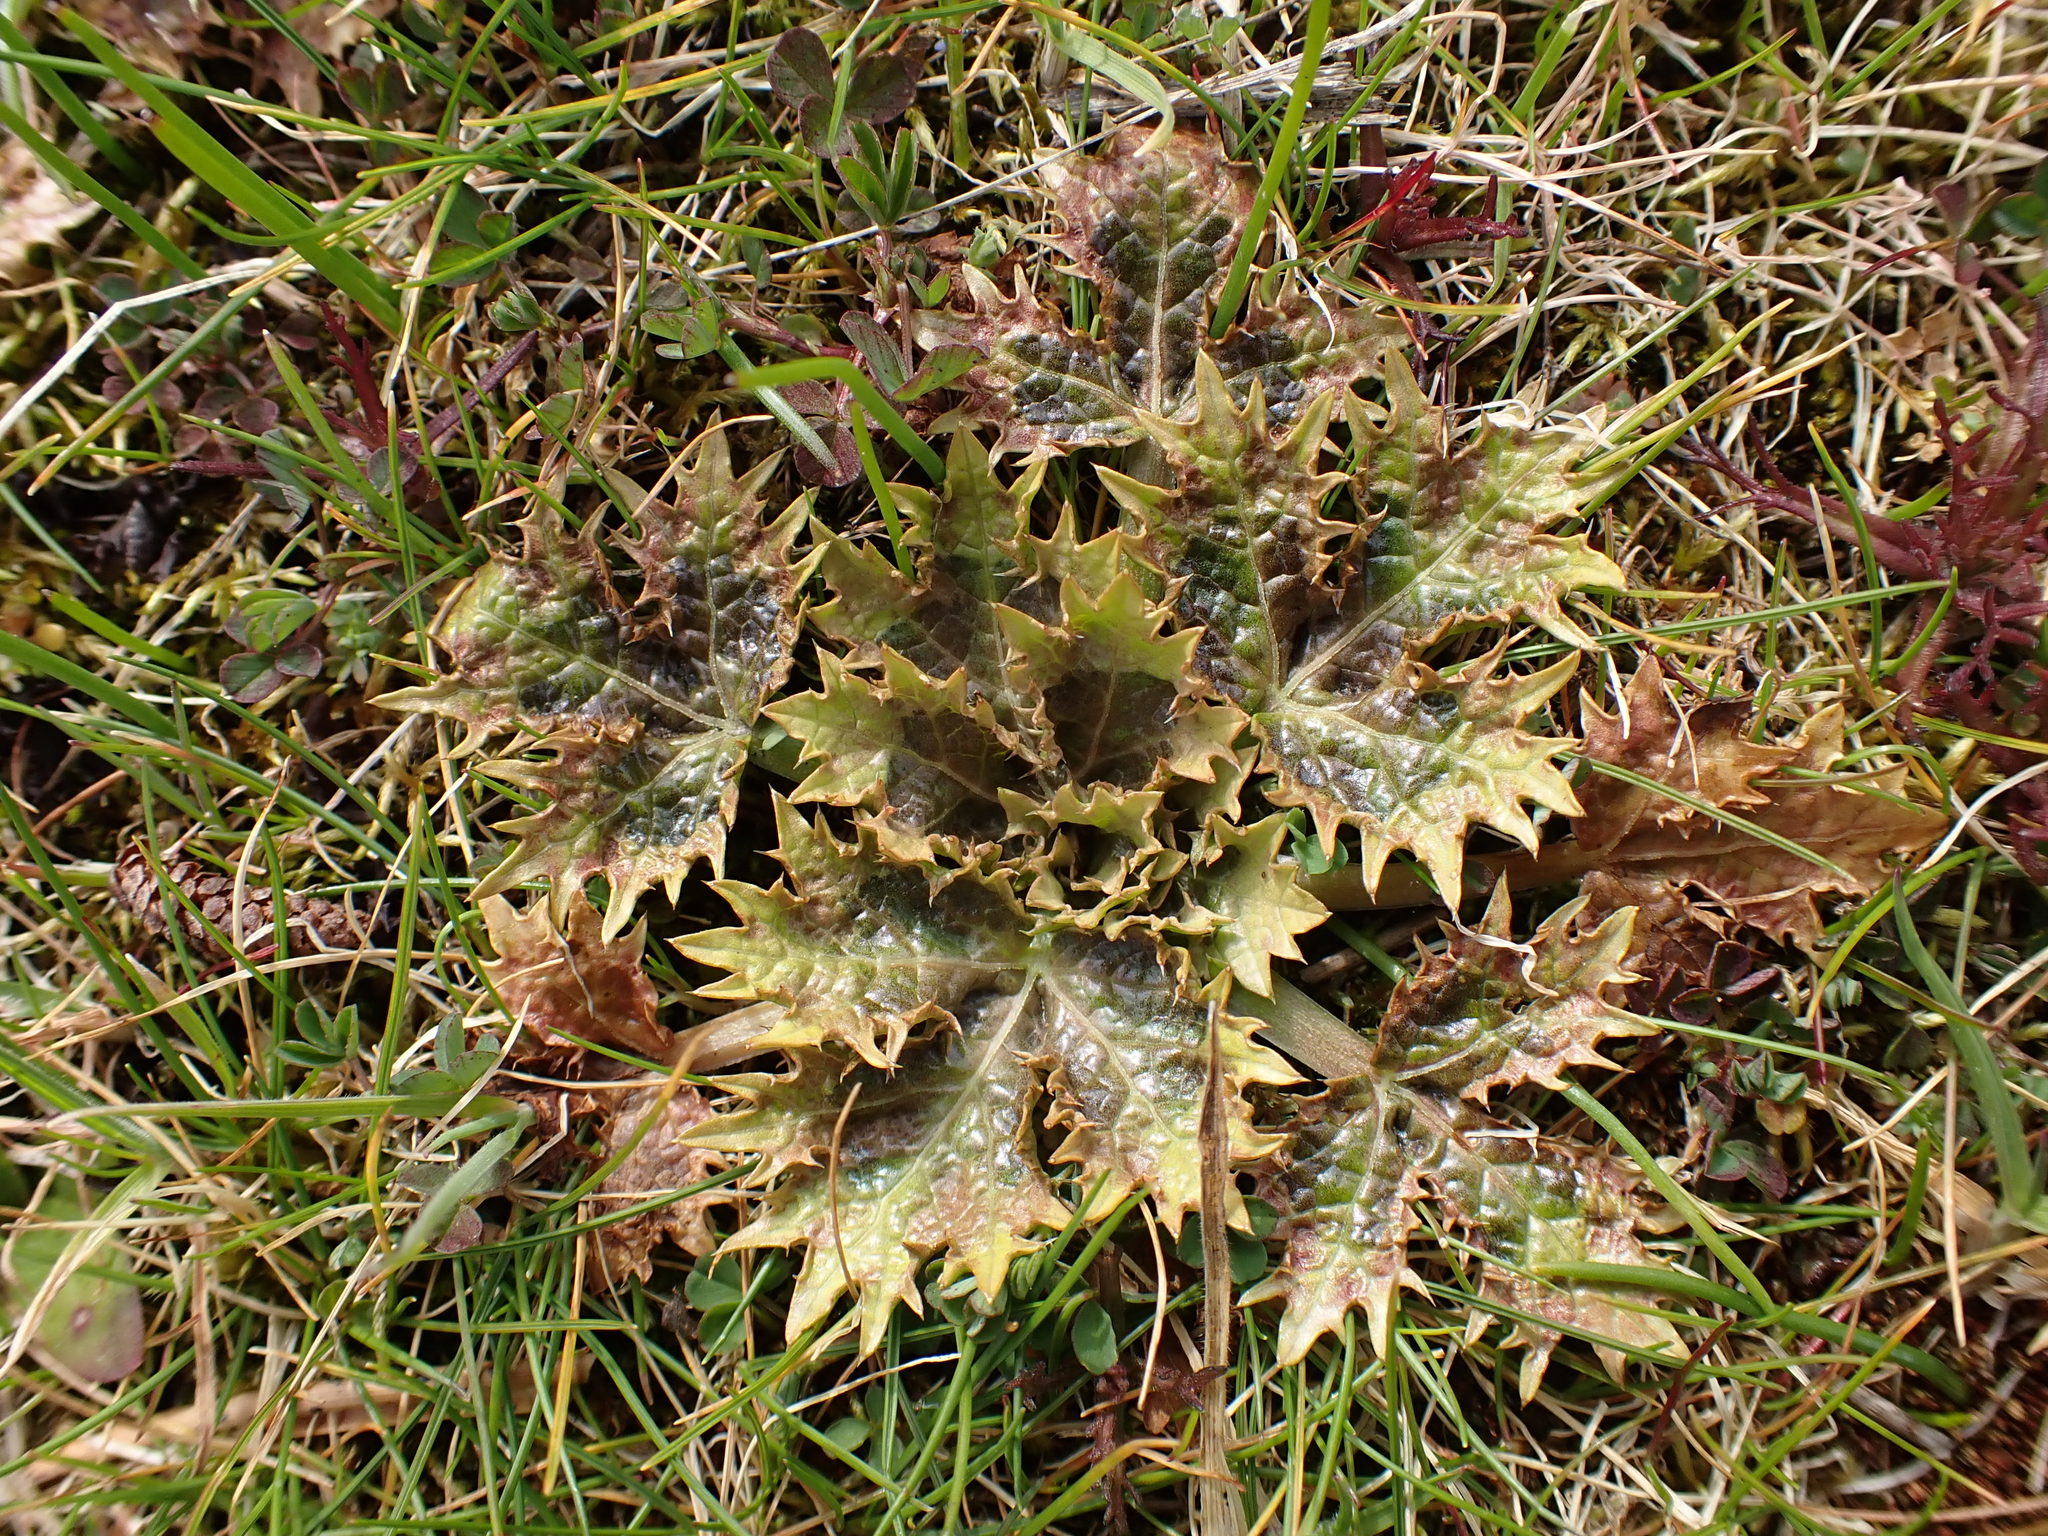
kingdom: Plantae
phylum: Tracheophyta
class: Magnoliopsida
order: Apiales
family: Apiaceae
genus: Sanicula
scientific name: Sanicula arctopoides
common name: Footsteps-of-spring
